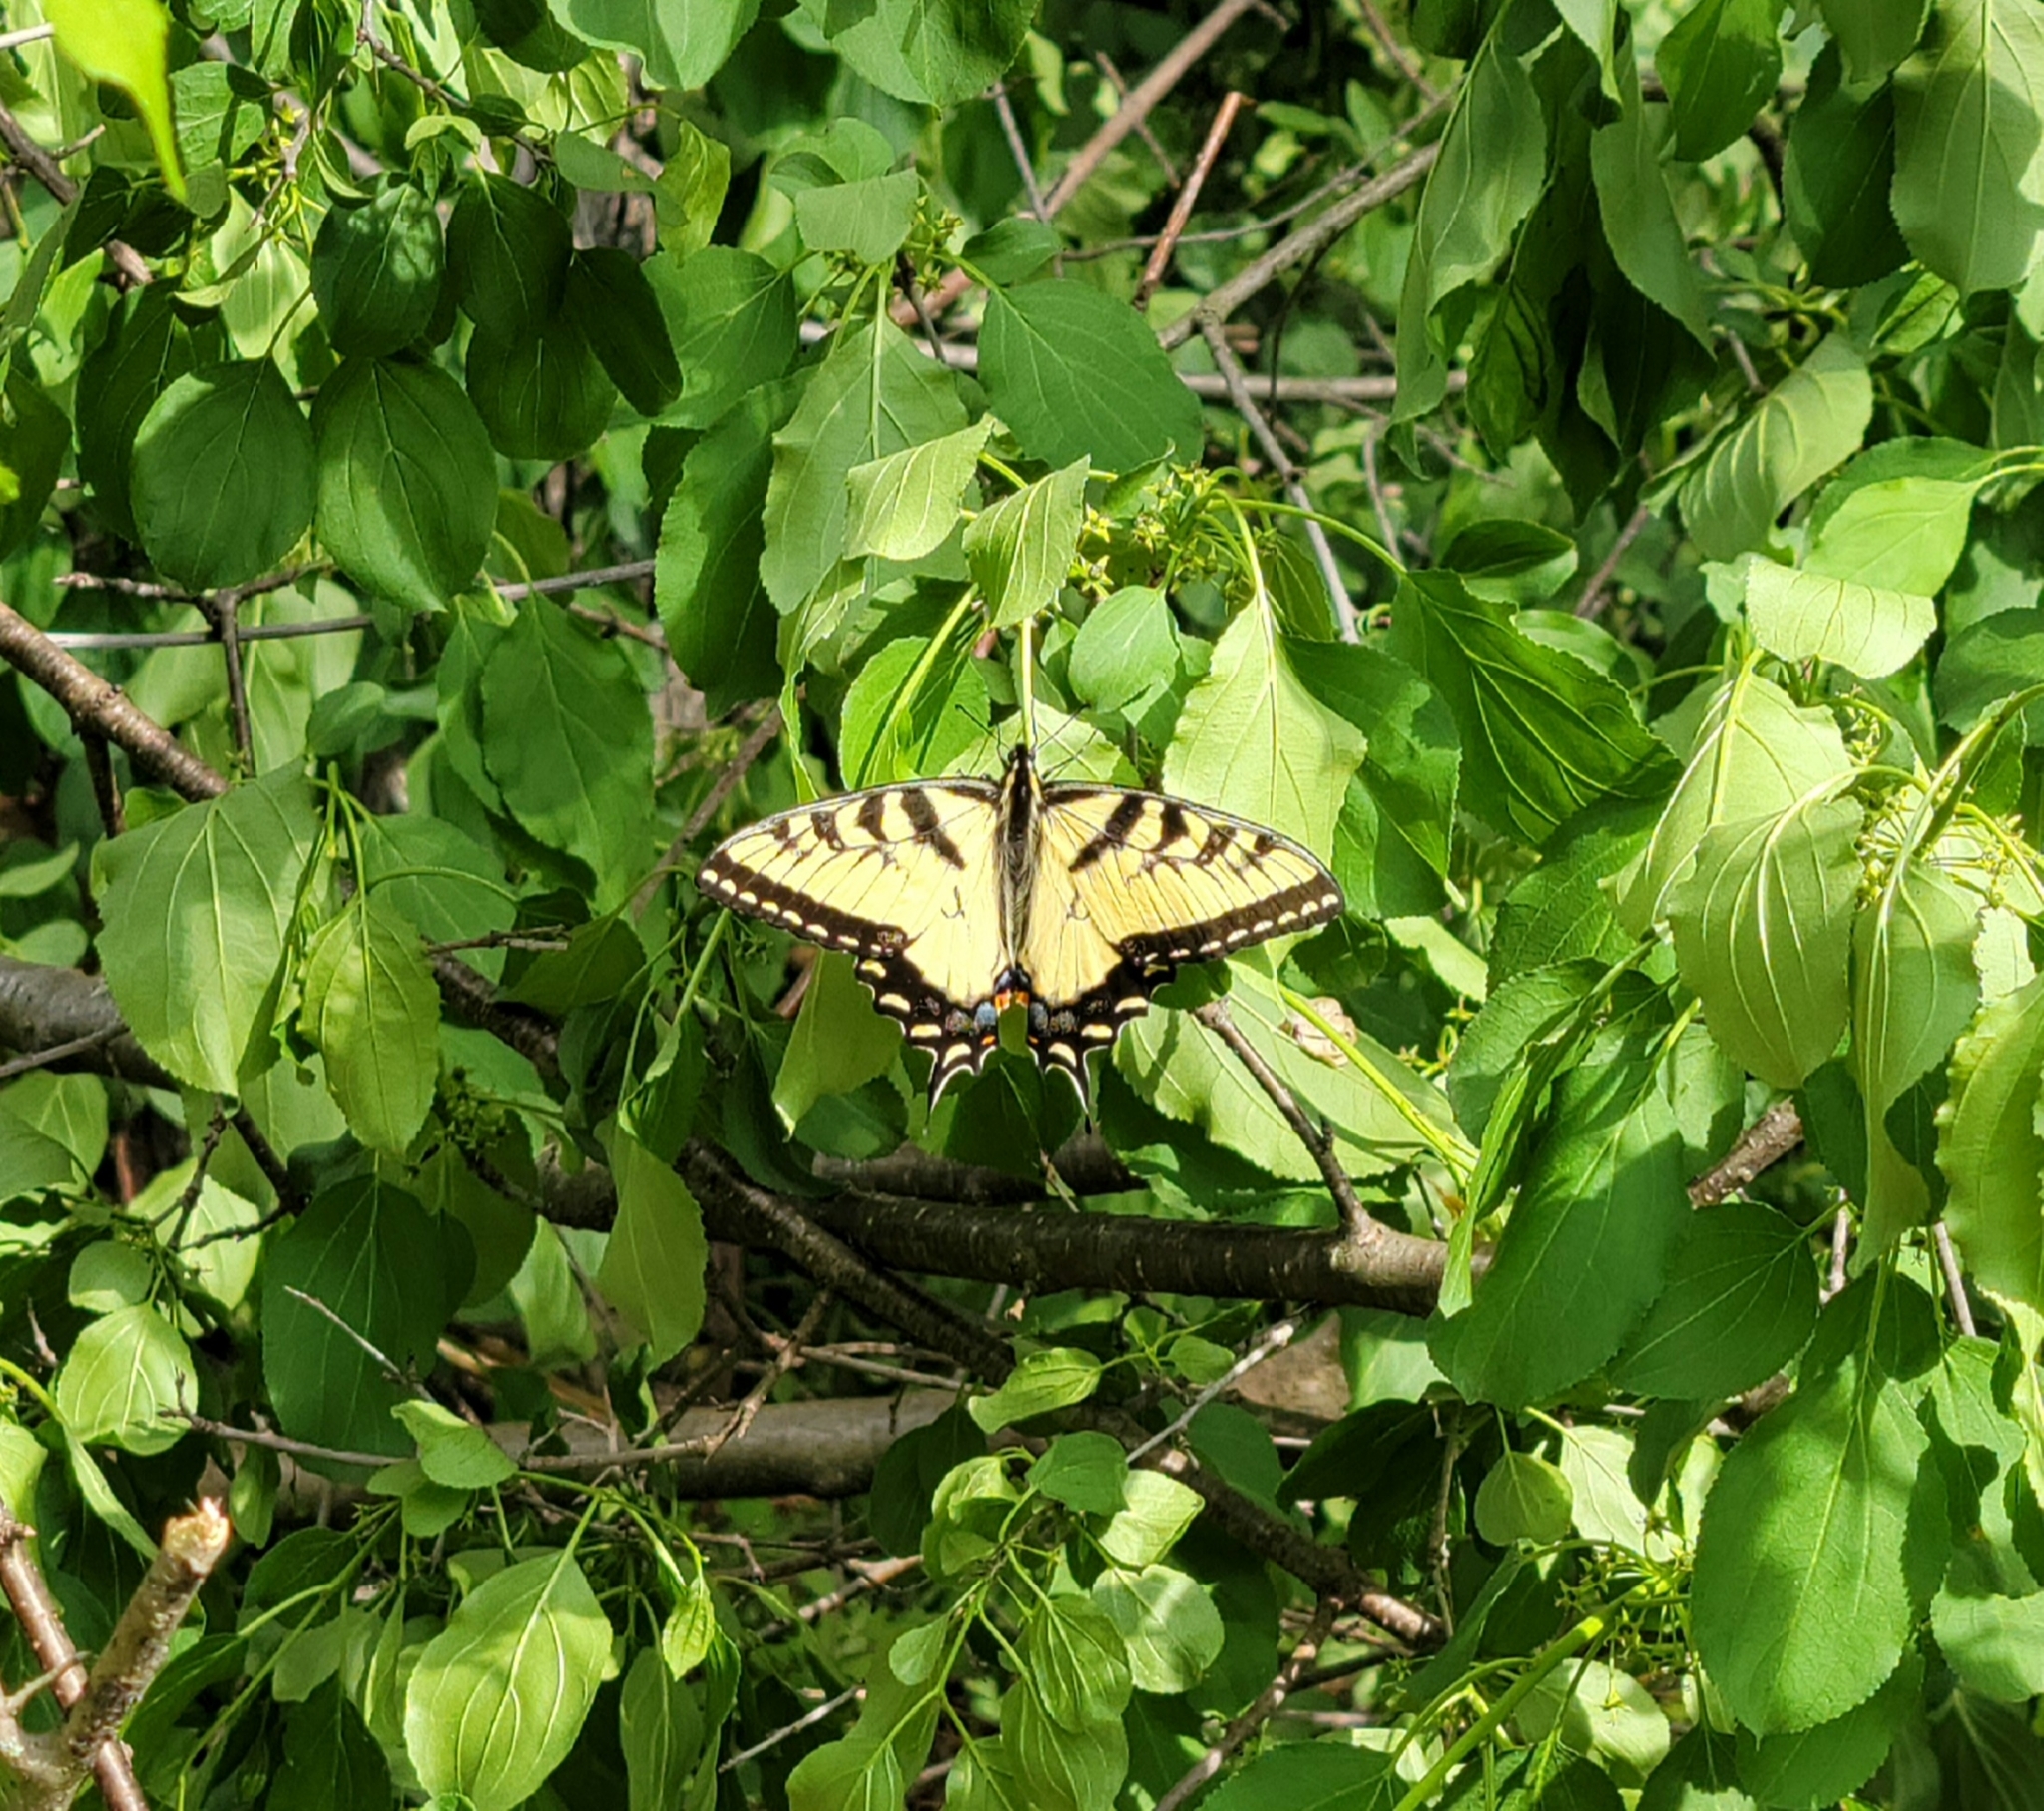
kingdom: Animalia
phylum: Arthropoda
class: Insecta
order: Lepidoptera
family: Papilionidae
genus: Papilio
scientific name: Papilio glaucus
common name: Tiger swallowtail
